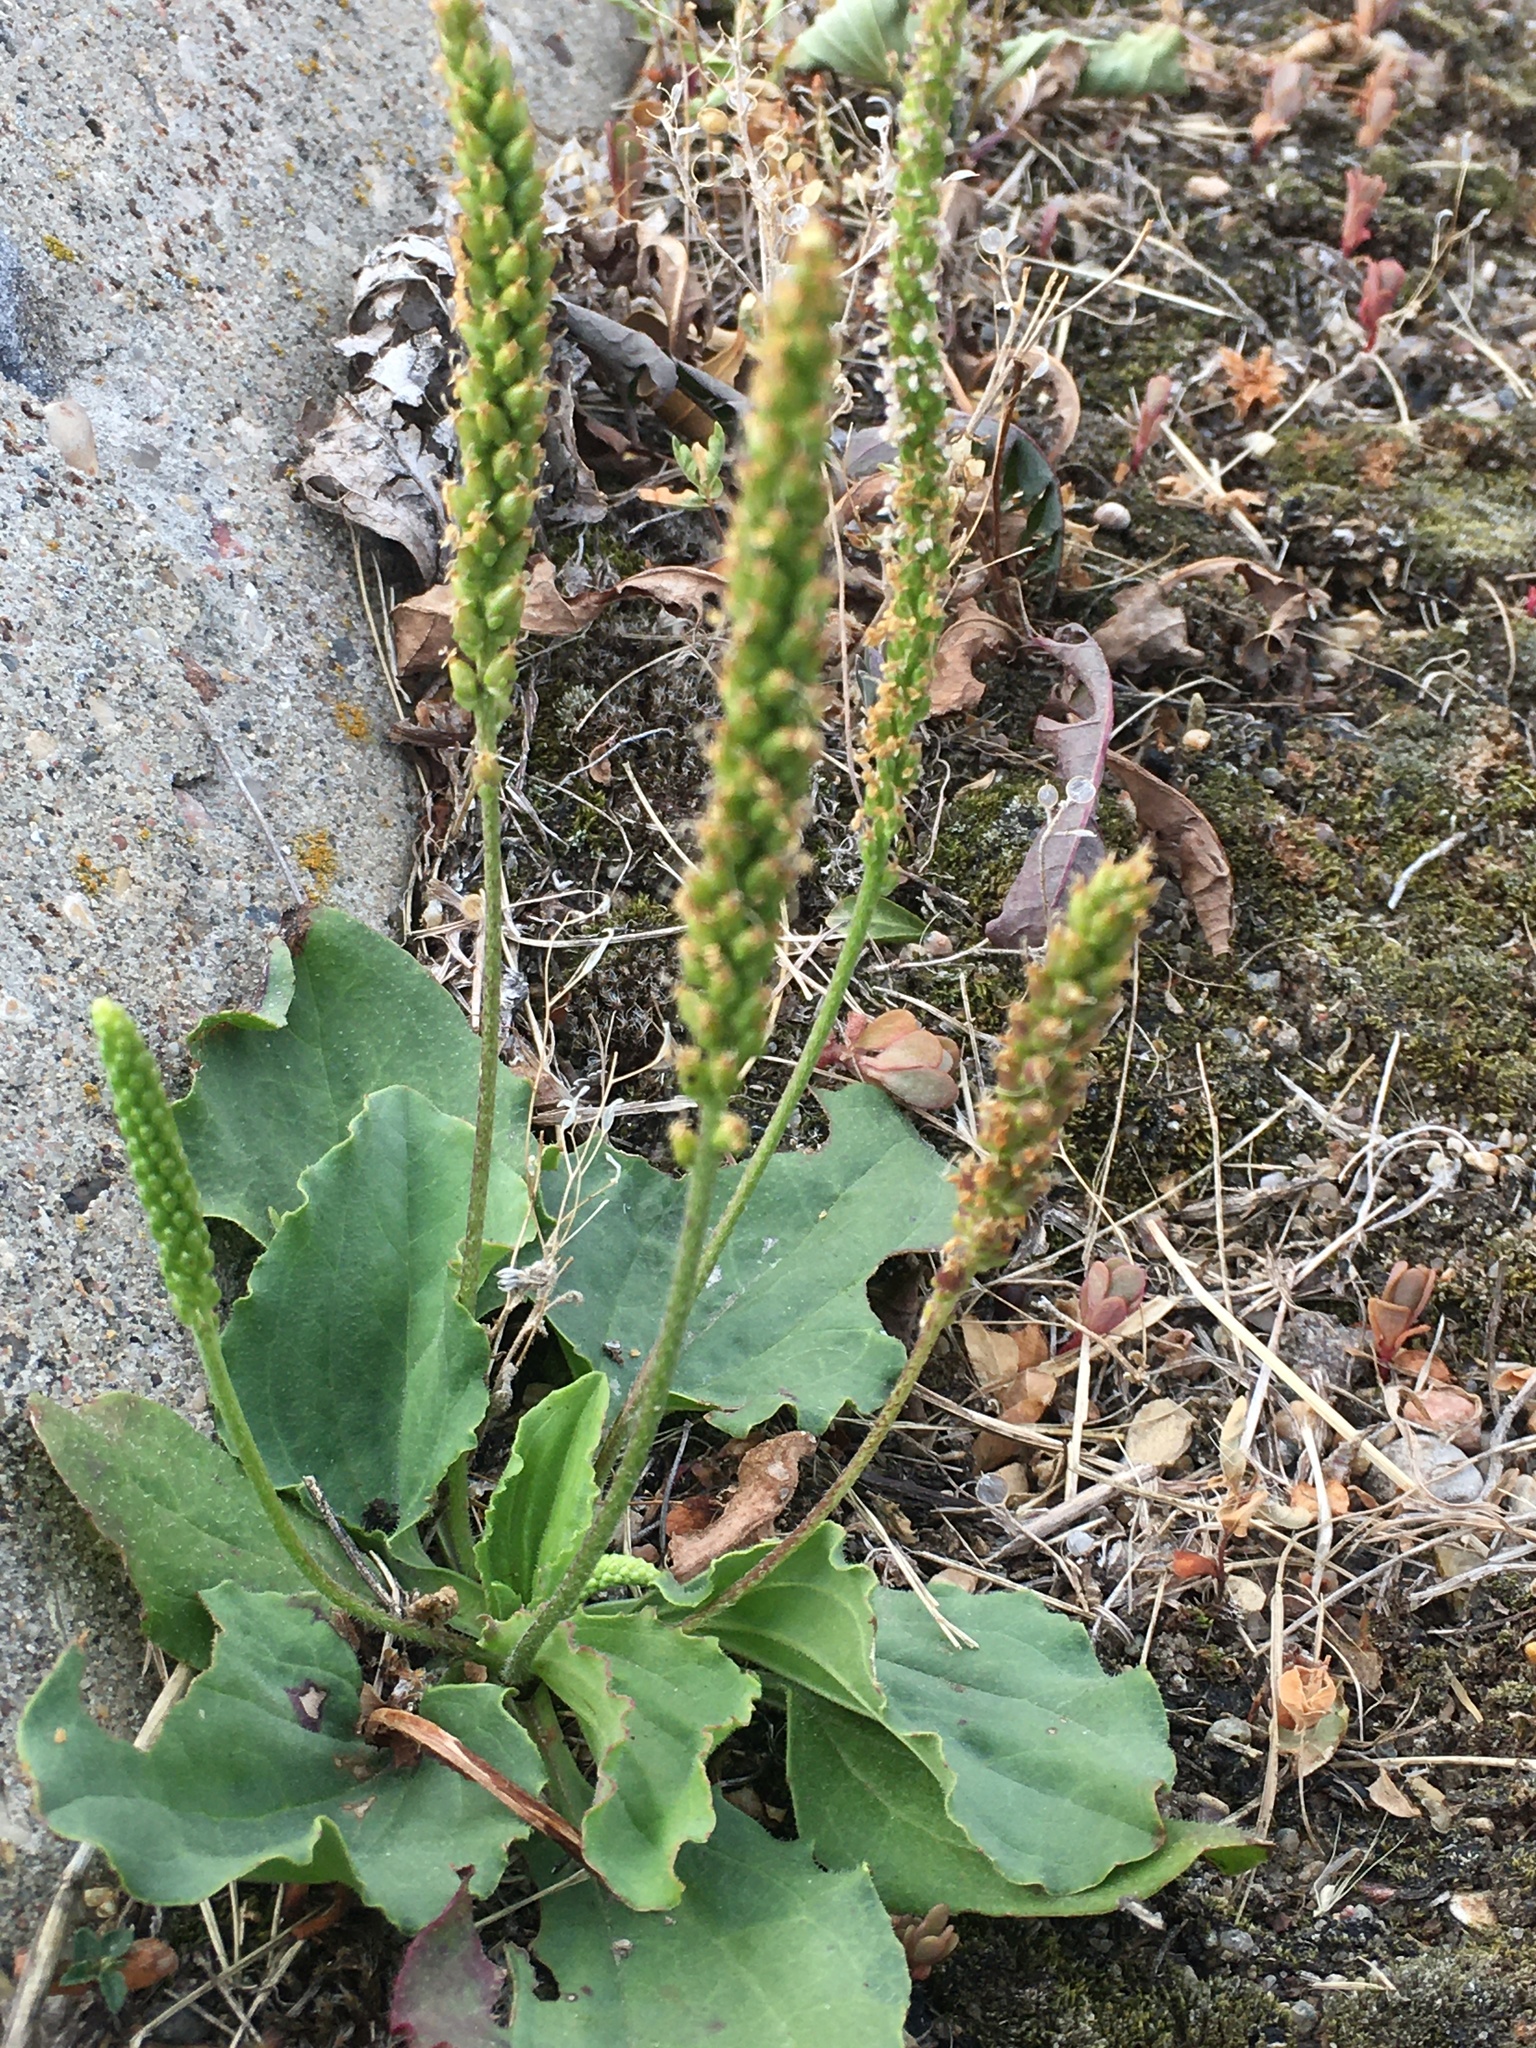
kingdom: Plantae
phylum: Tracheophyta
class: Magnoliopsida
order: Lamiales
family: Plantaginaceae
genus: Plantago
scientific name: Plantago major
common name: Common plantain
